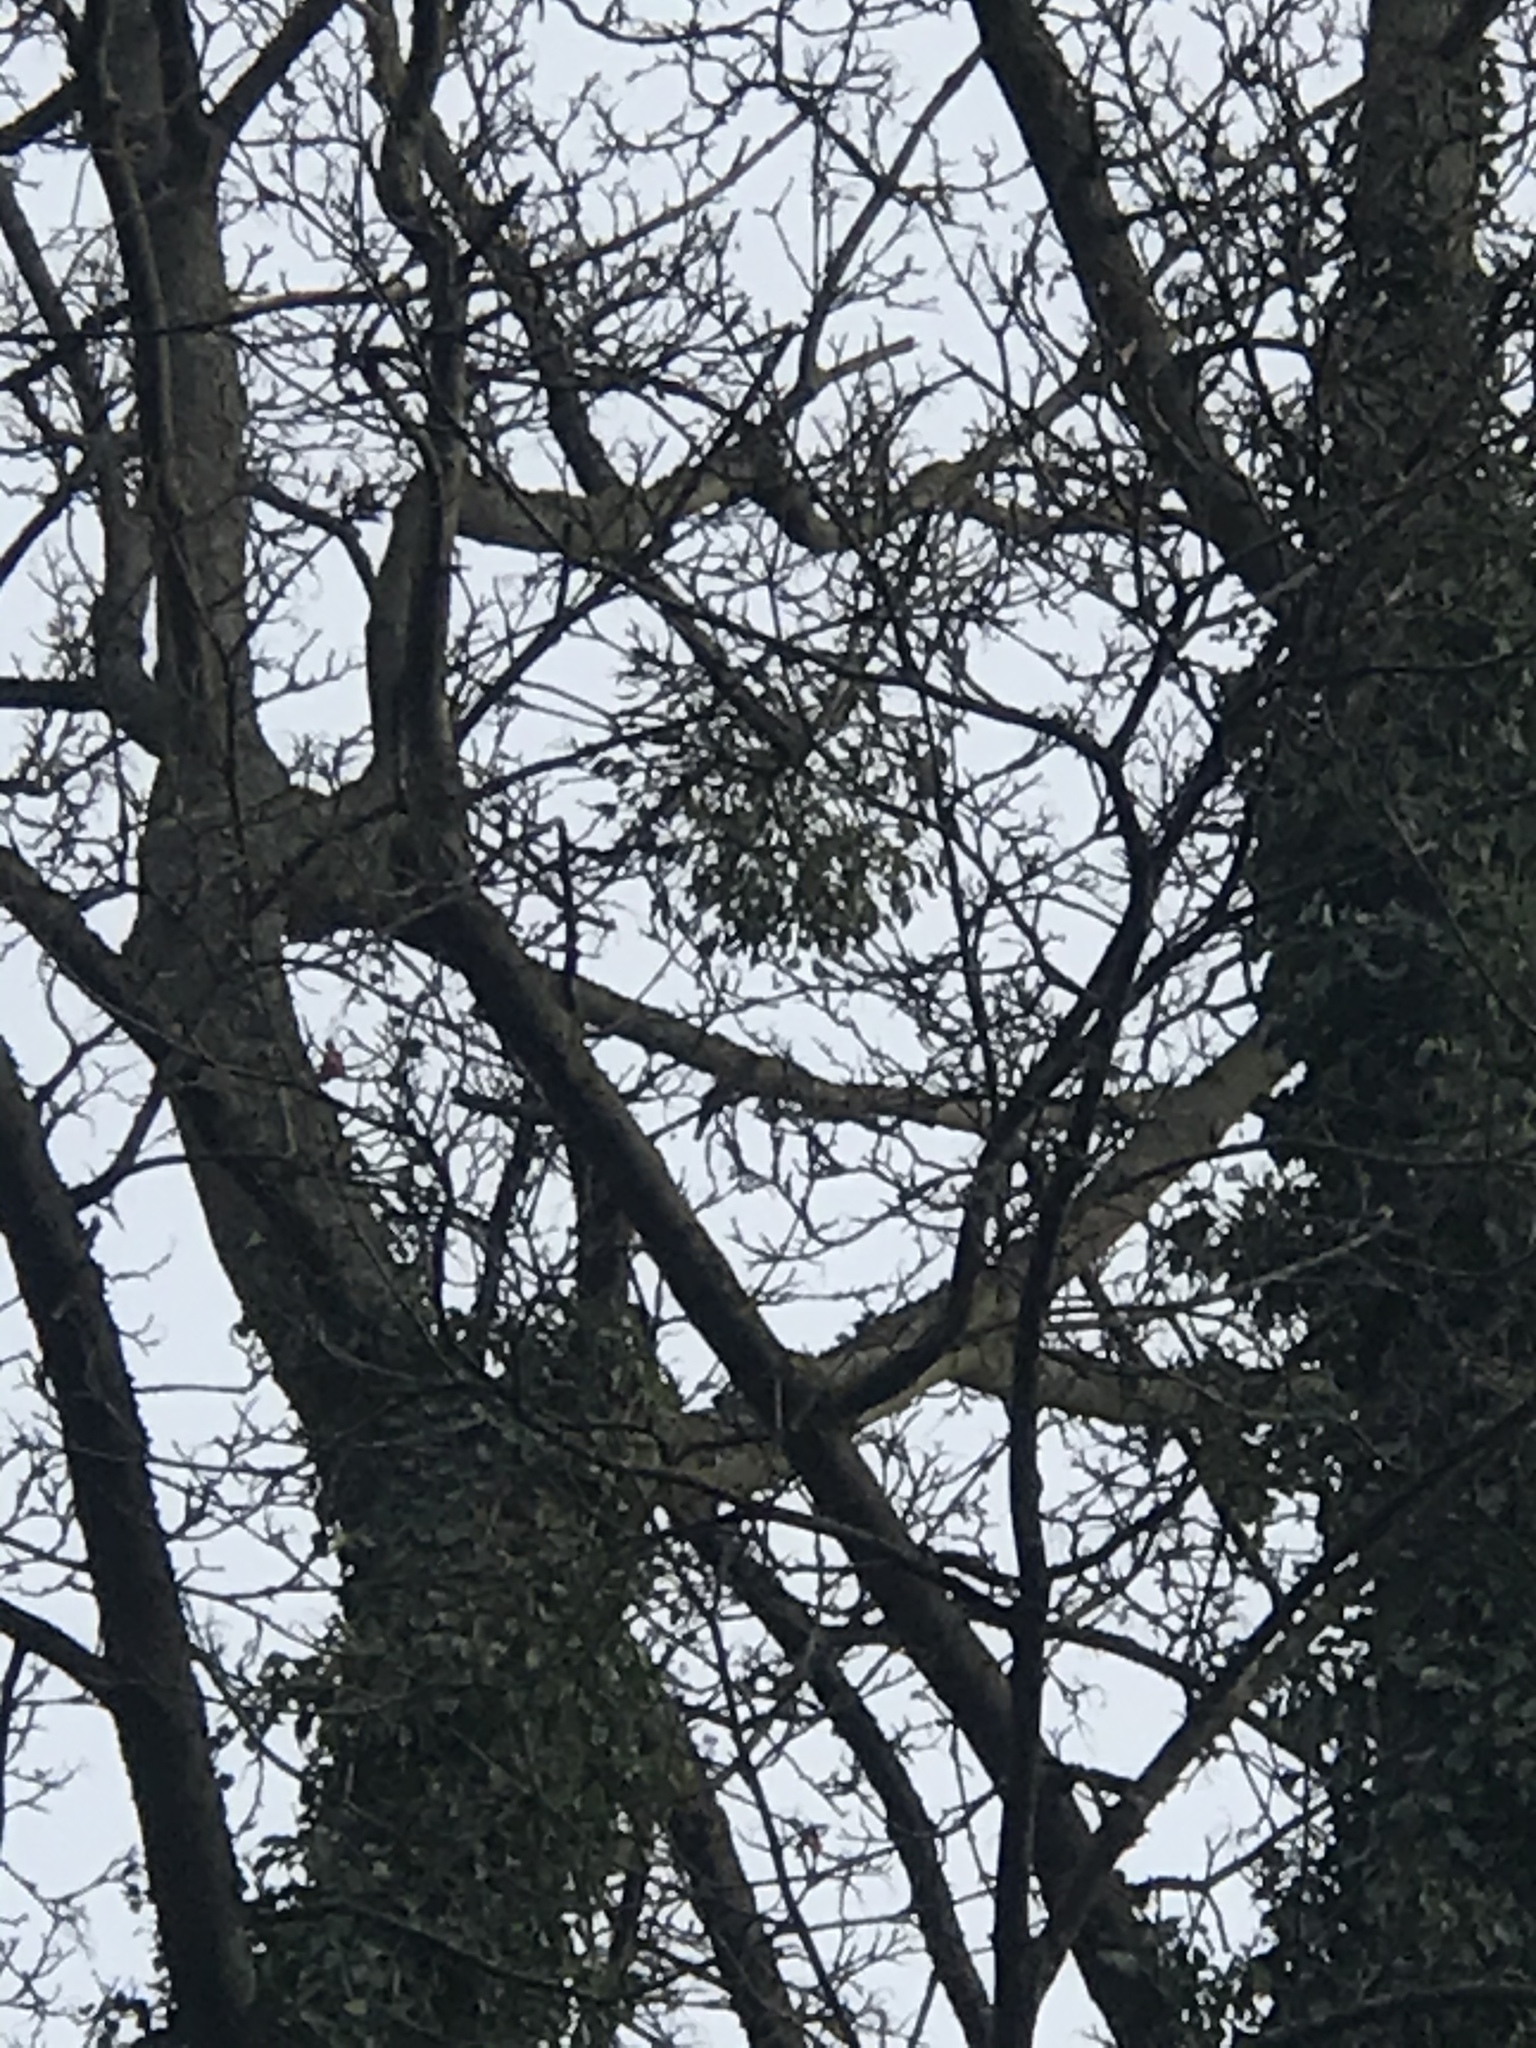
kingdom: Plantae
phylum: Tracheophyta
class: Magnoliopsida
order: Santalales
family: Viscaceae
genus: Viscum
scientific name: Viscum album
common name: Mistletoe
